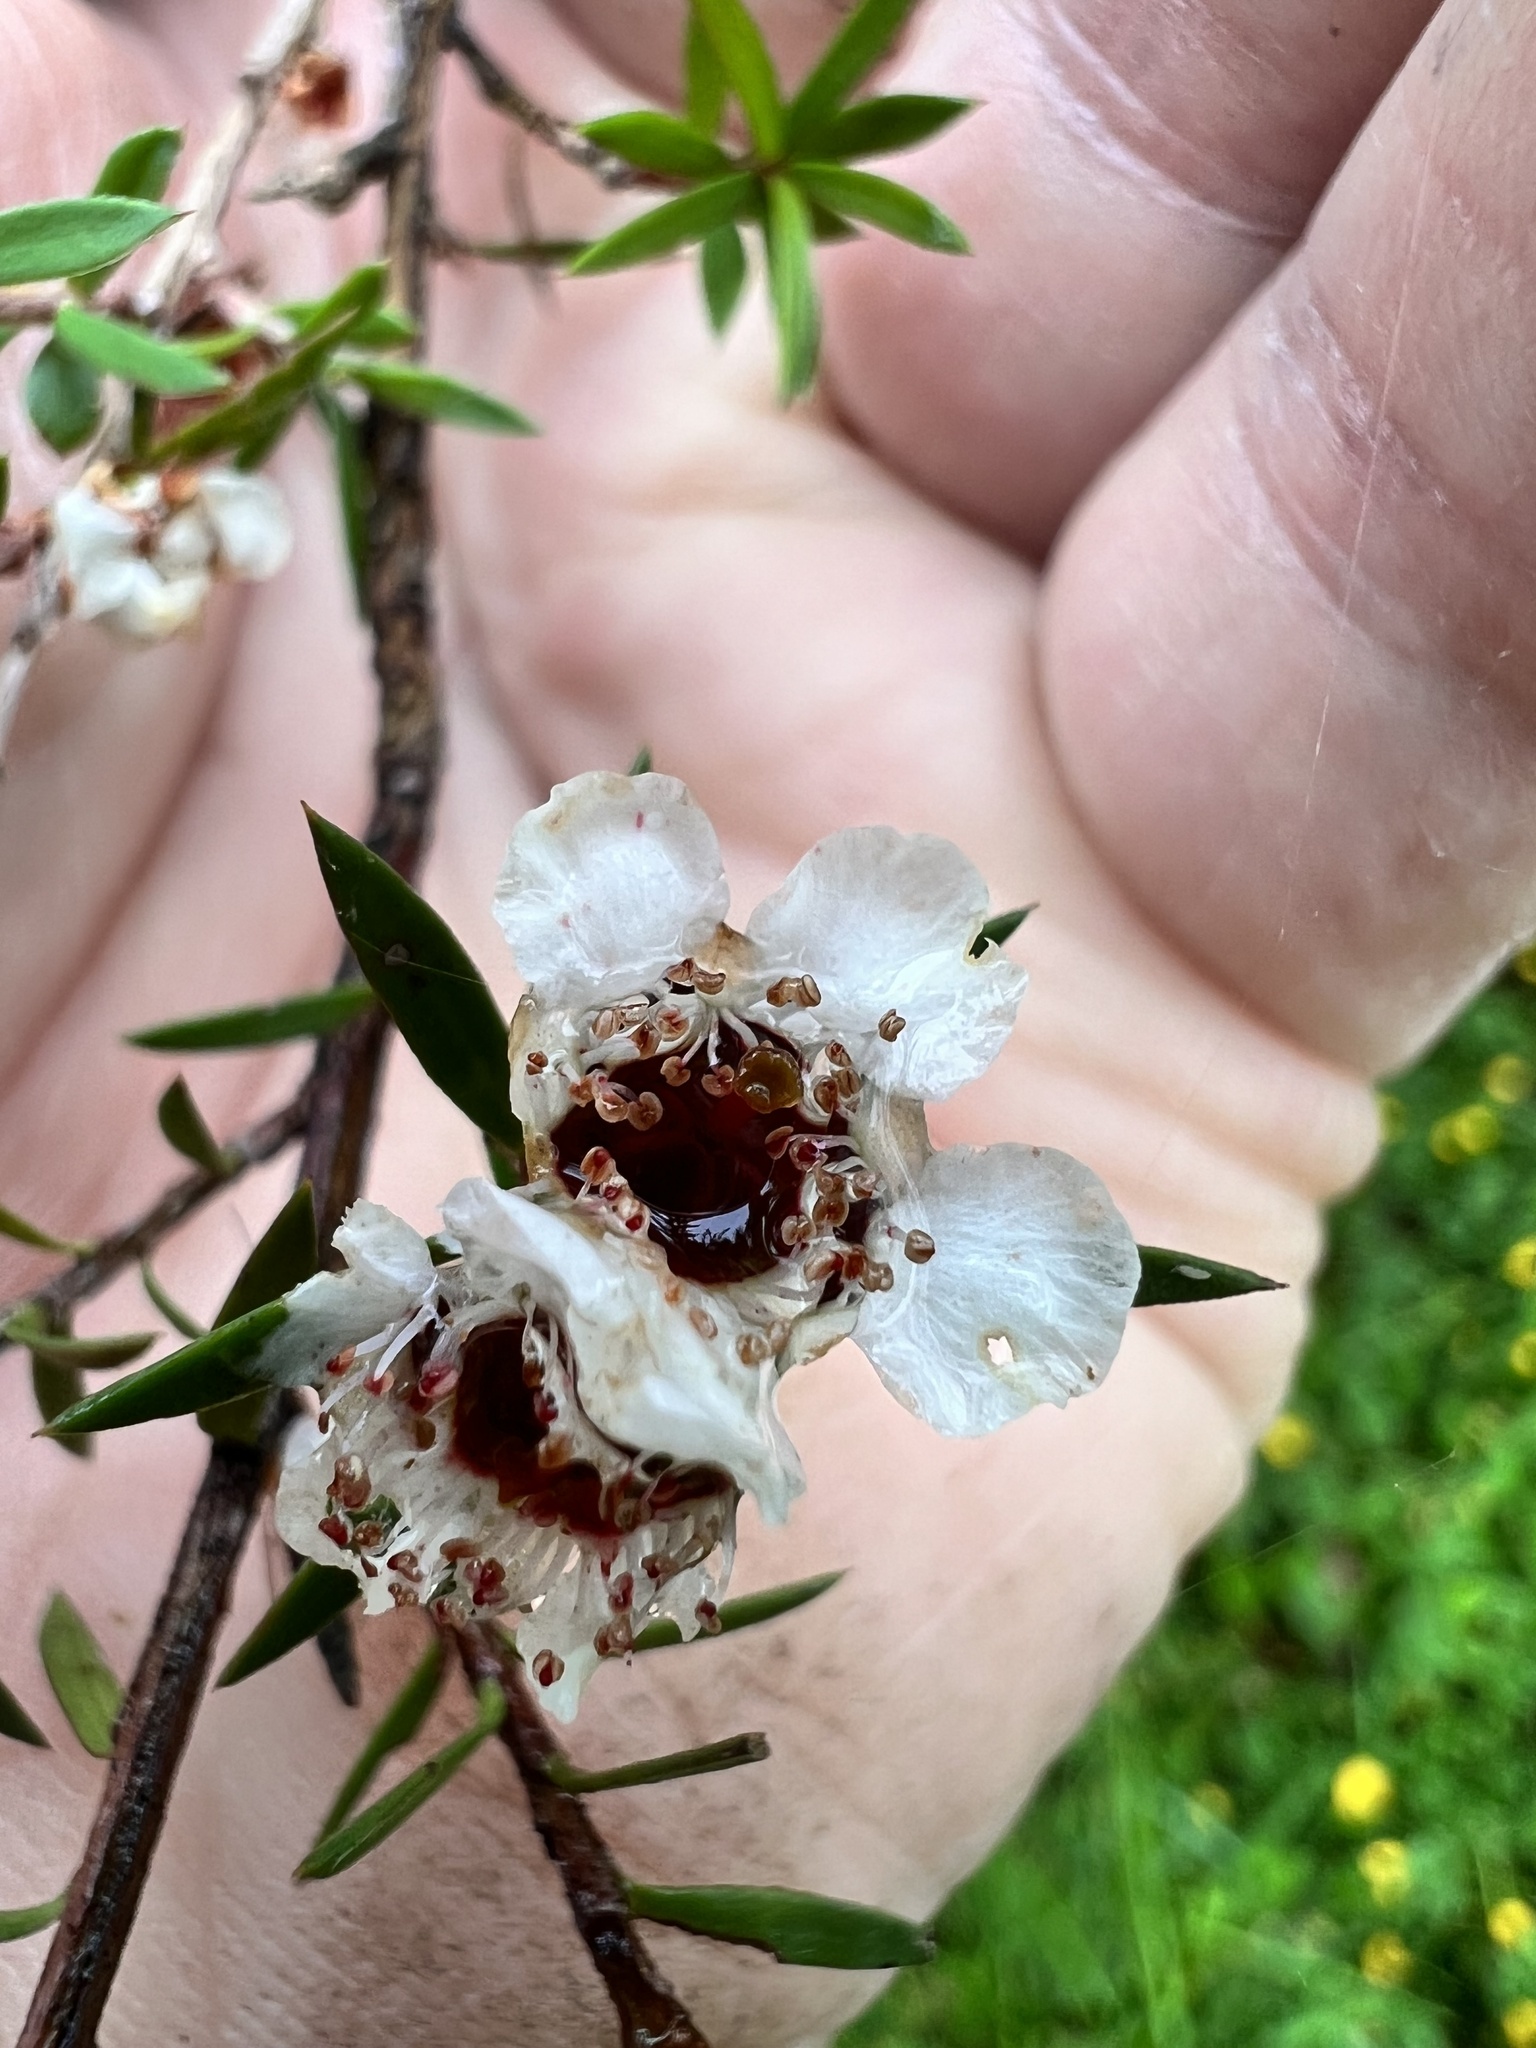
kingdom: Plantae
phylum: Tracheophyta
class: Magnoliopsida
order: Myrtales
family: Myrtaceae
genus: Leptospermum
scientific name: Leptospermum scoparium
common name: Broom tea-tree
